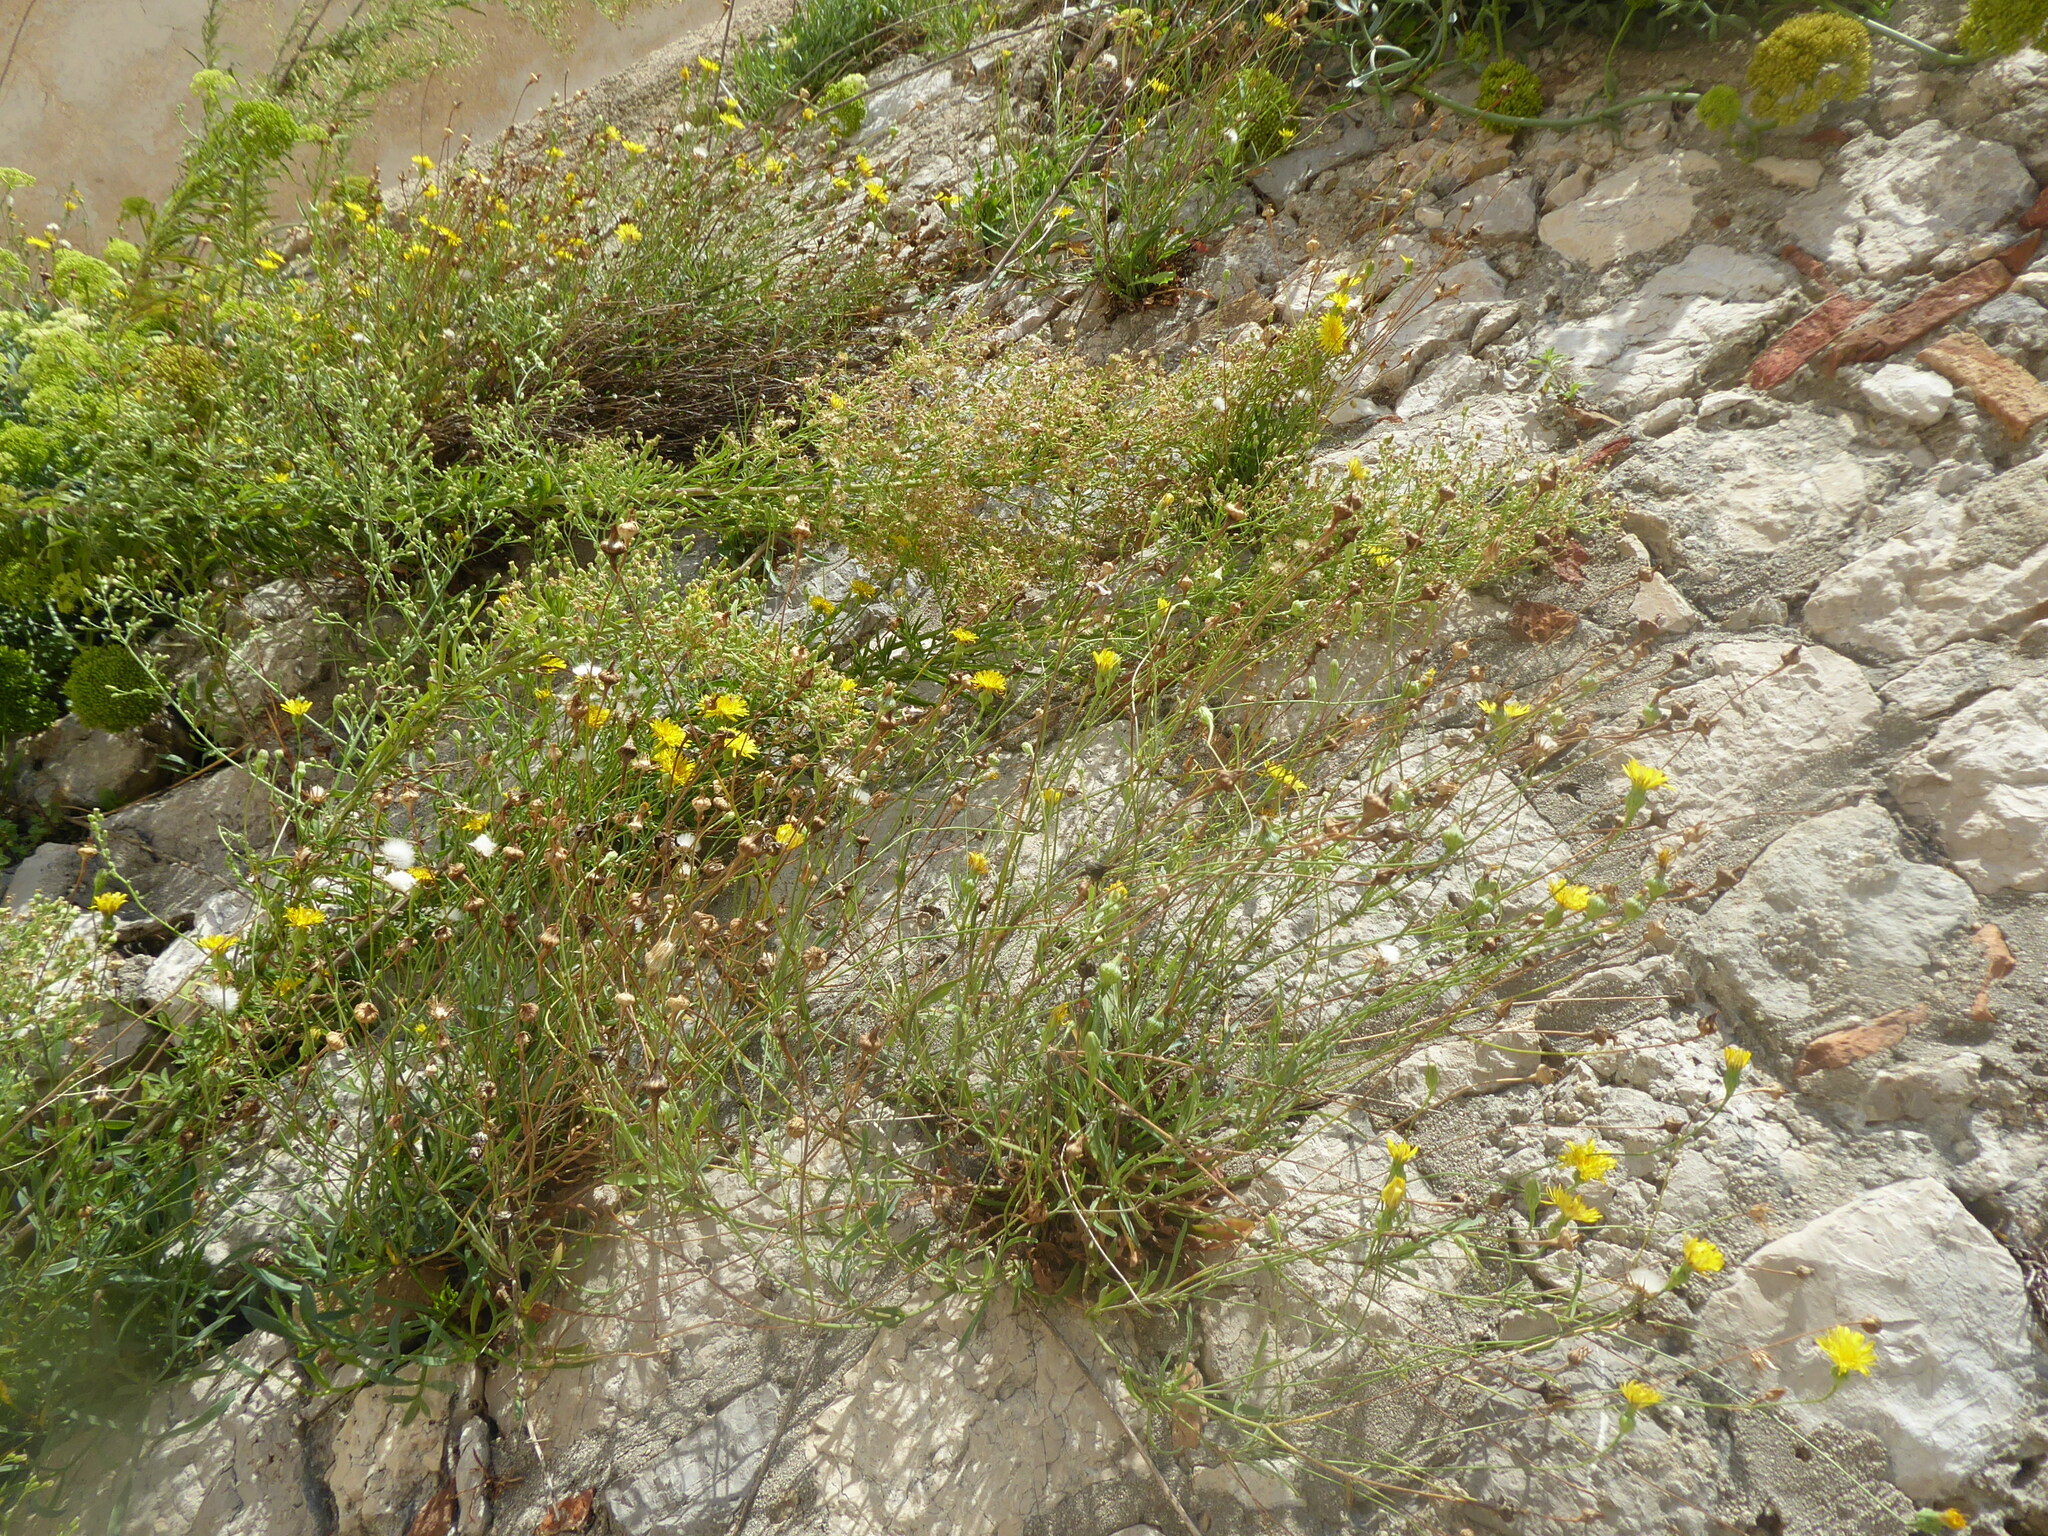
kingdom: Plantae
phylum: Tracheophyta
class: Magnoliopsida
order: Asterales
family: Asteraceae
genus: Reichardia
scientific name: Reichardia picroides
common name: Common brighteyes
